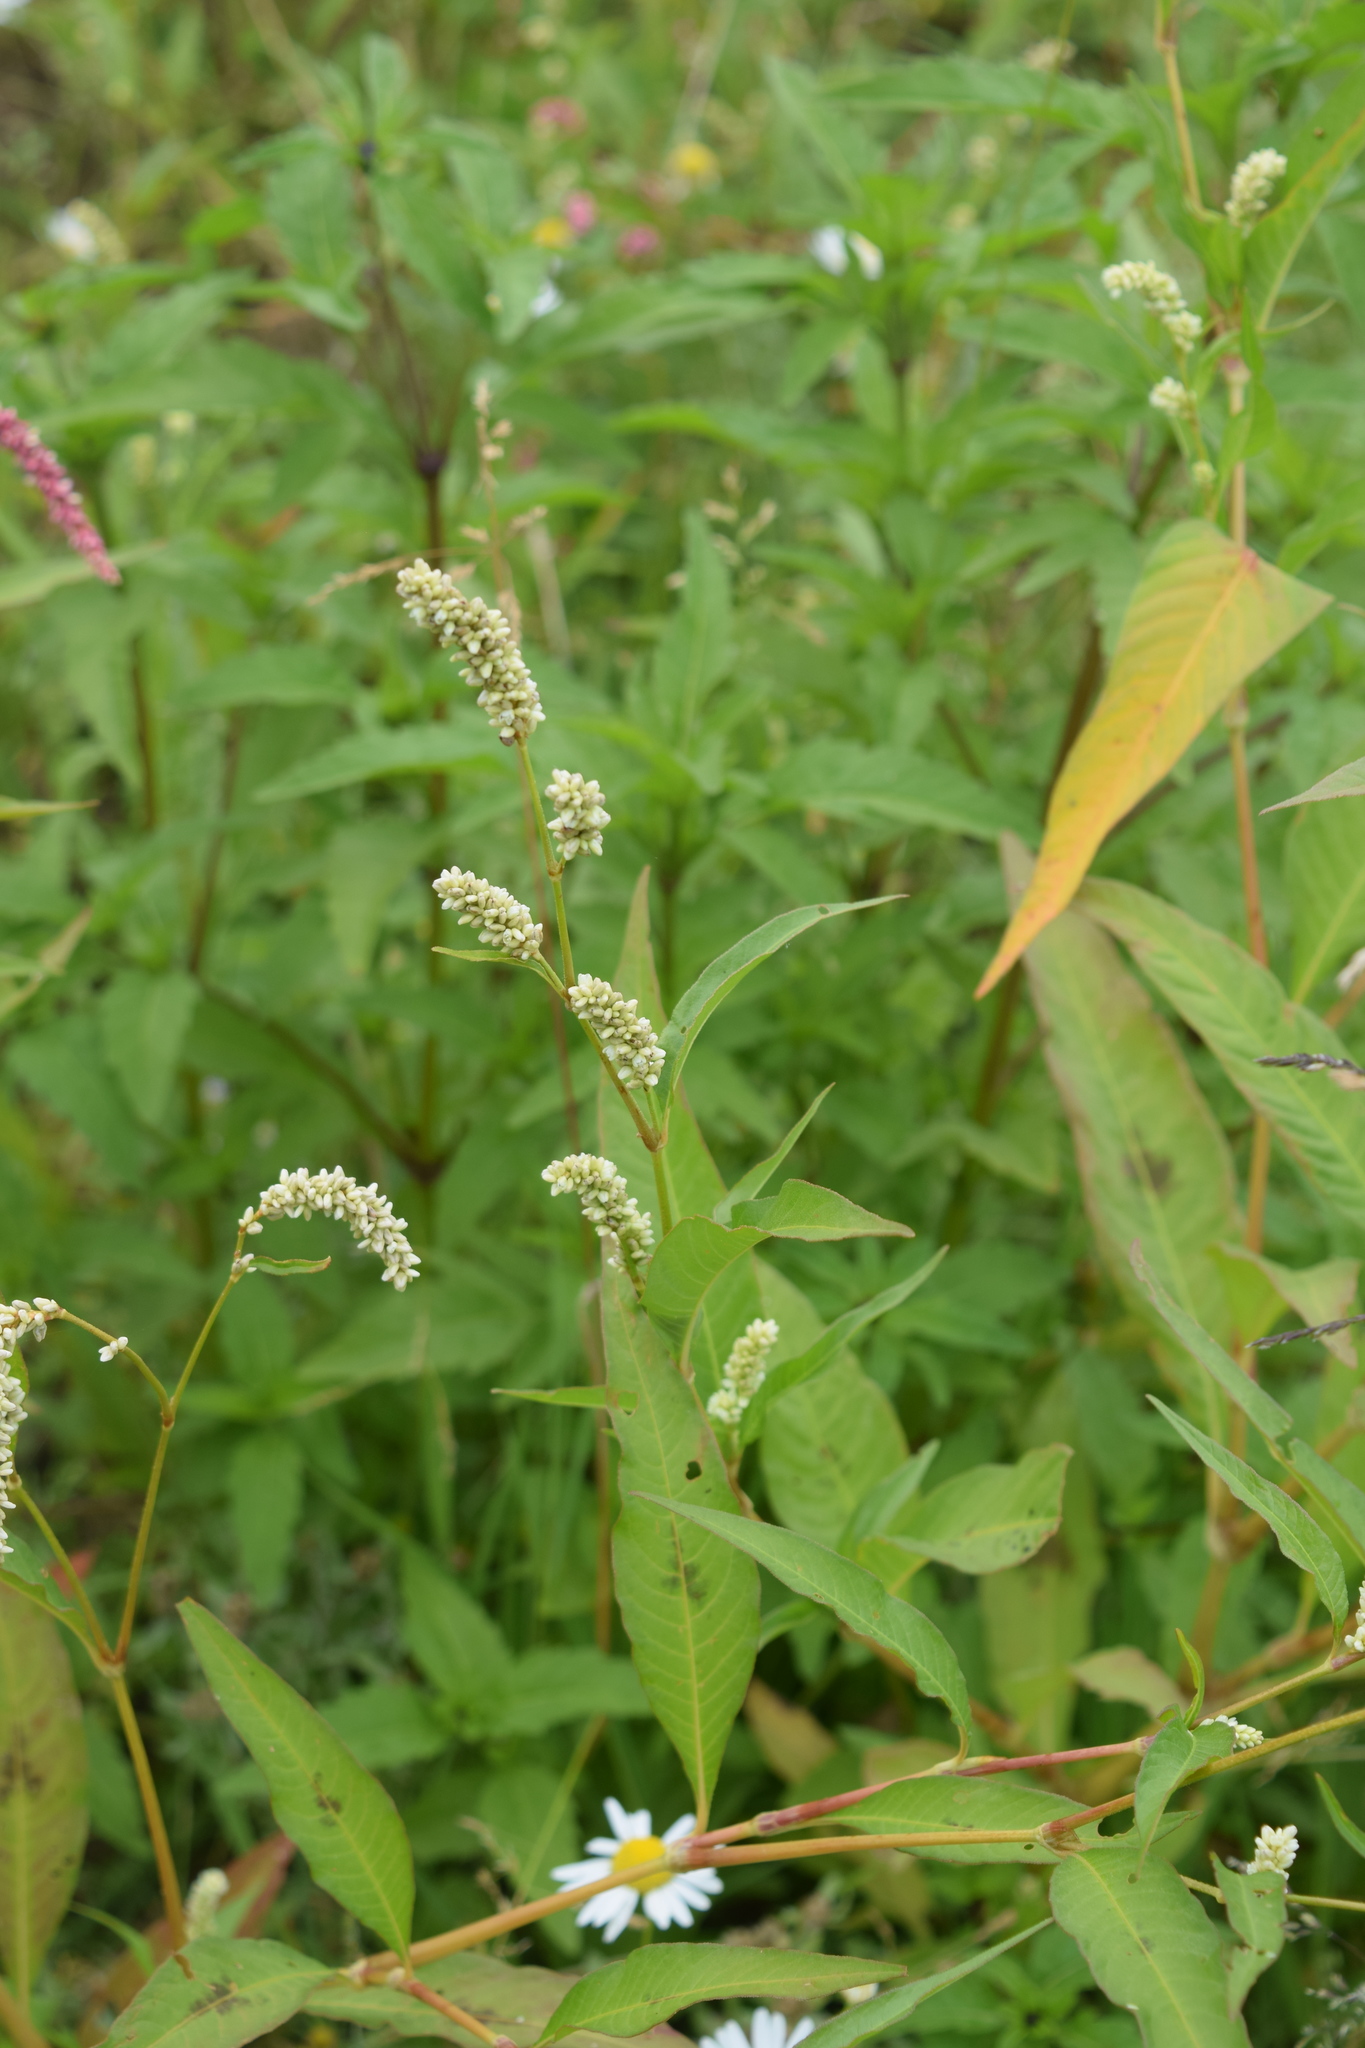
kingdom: Plantae
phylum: Tracheophyta
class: Magnoliopsida
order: Caryophyllales
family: Polygonaceae
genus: Persicaria
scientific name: Persicaria lapathifolia
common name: Curlytop knotweed
